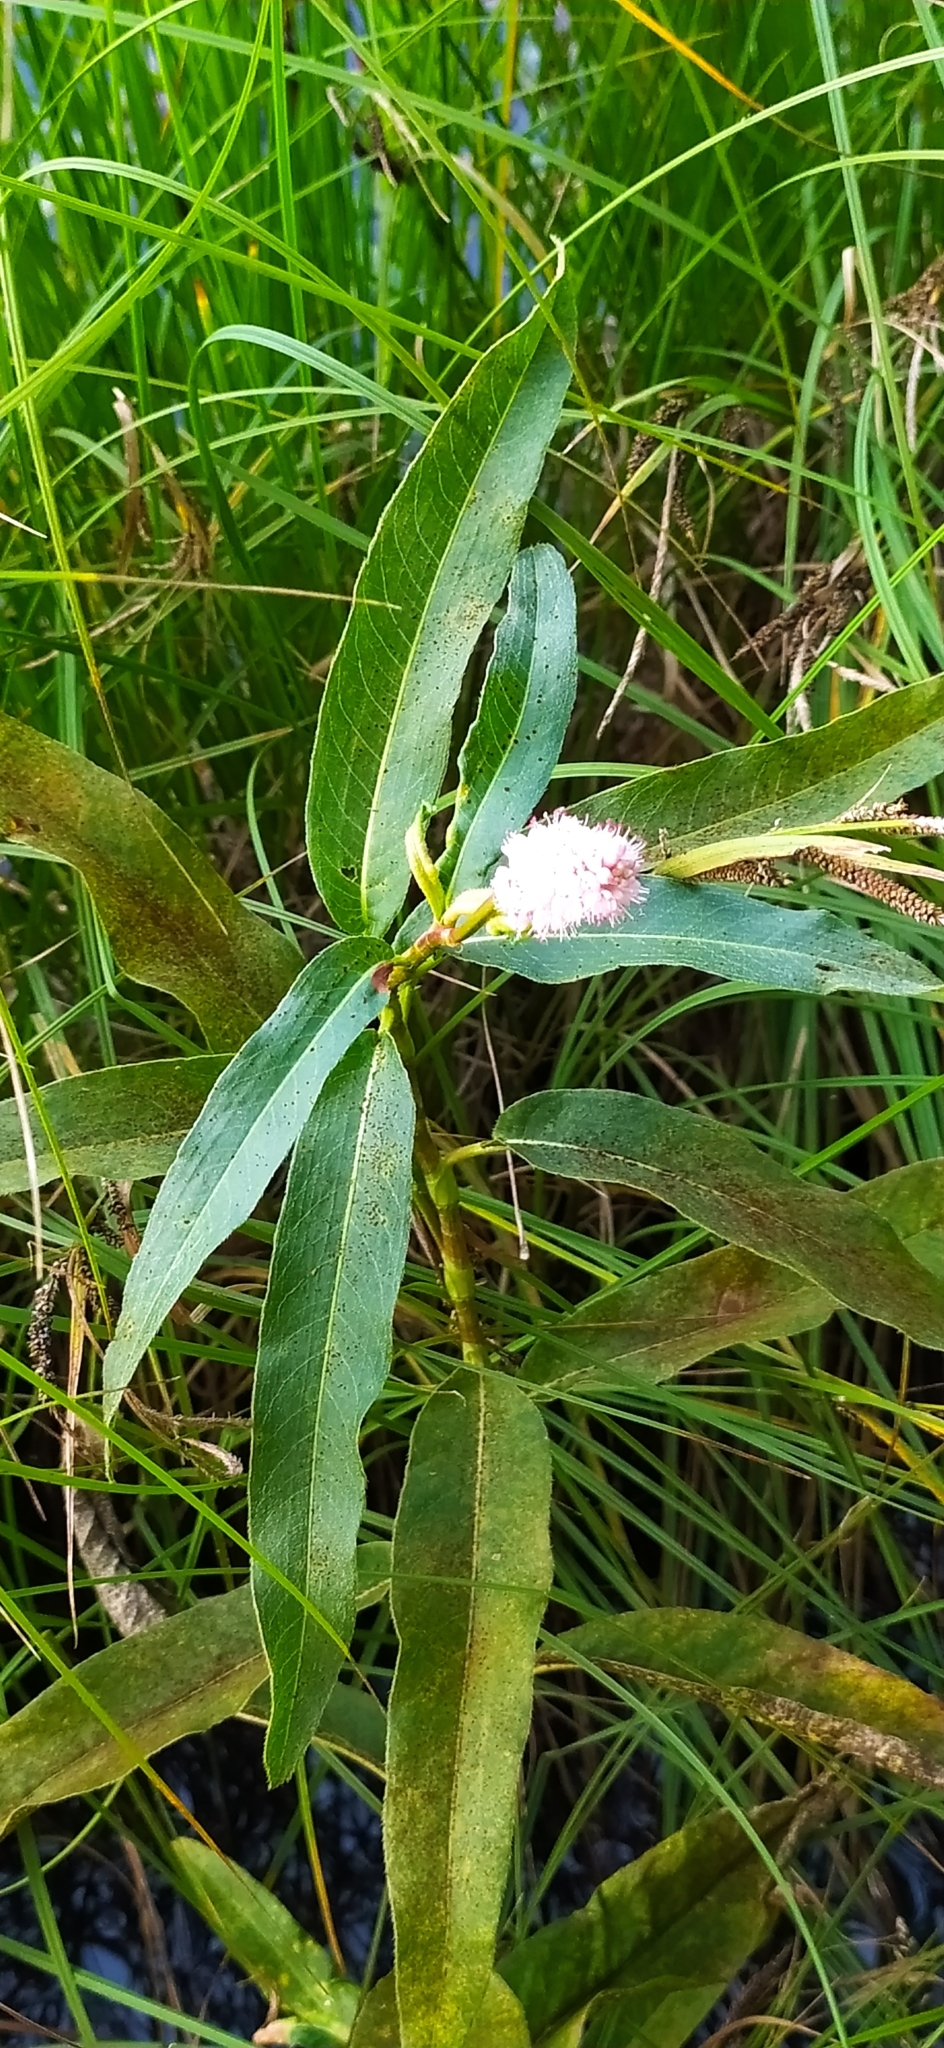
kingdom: Plantae
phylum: Tracheophyta
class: Magnoliopsida
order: Caryophyllales
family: Polygonaceae
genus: Persicaria
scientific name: Persicaria amphibia
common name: Amphibious bistort
